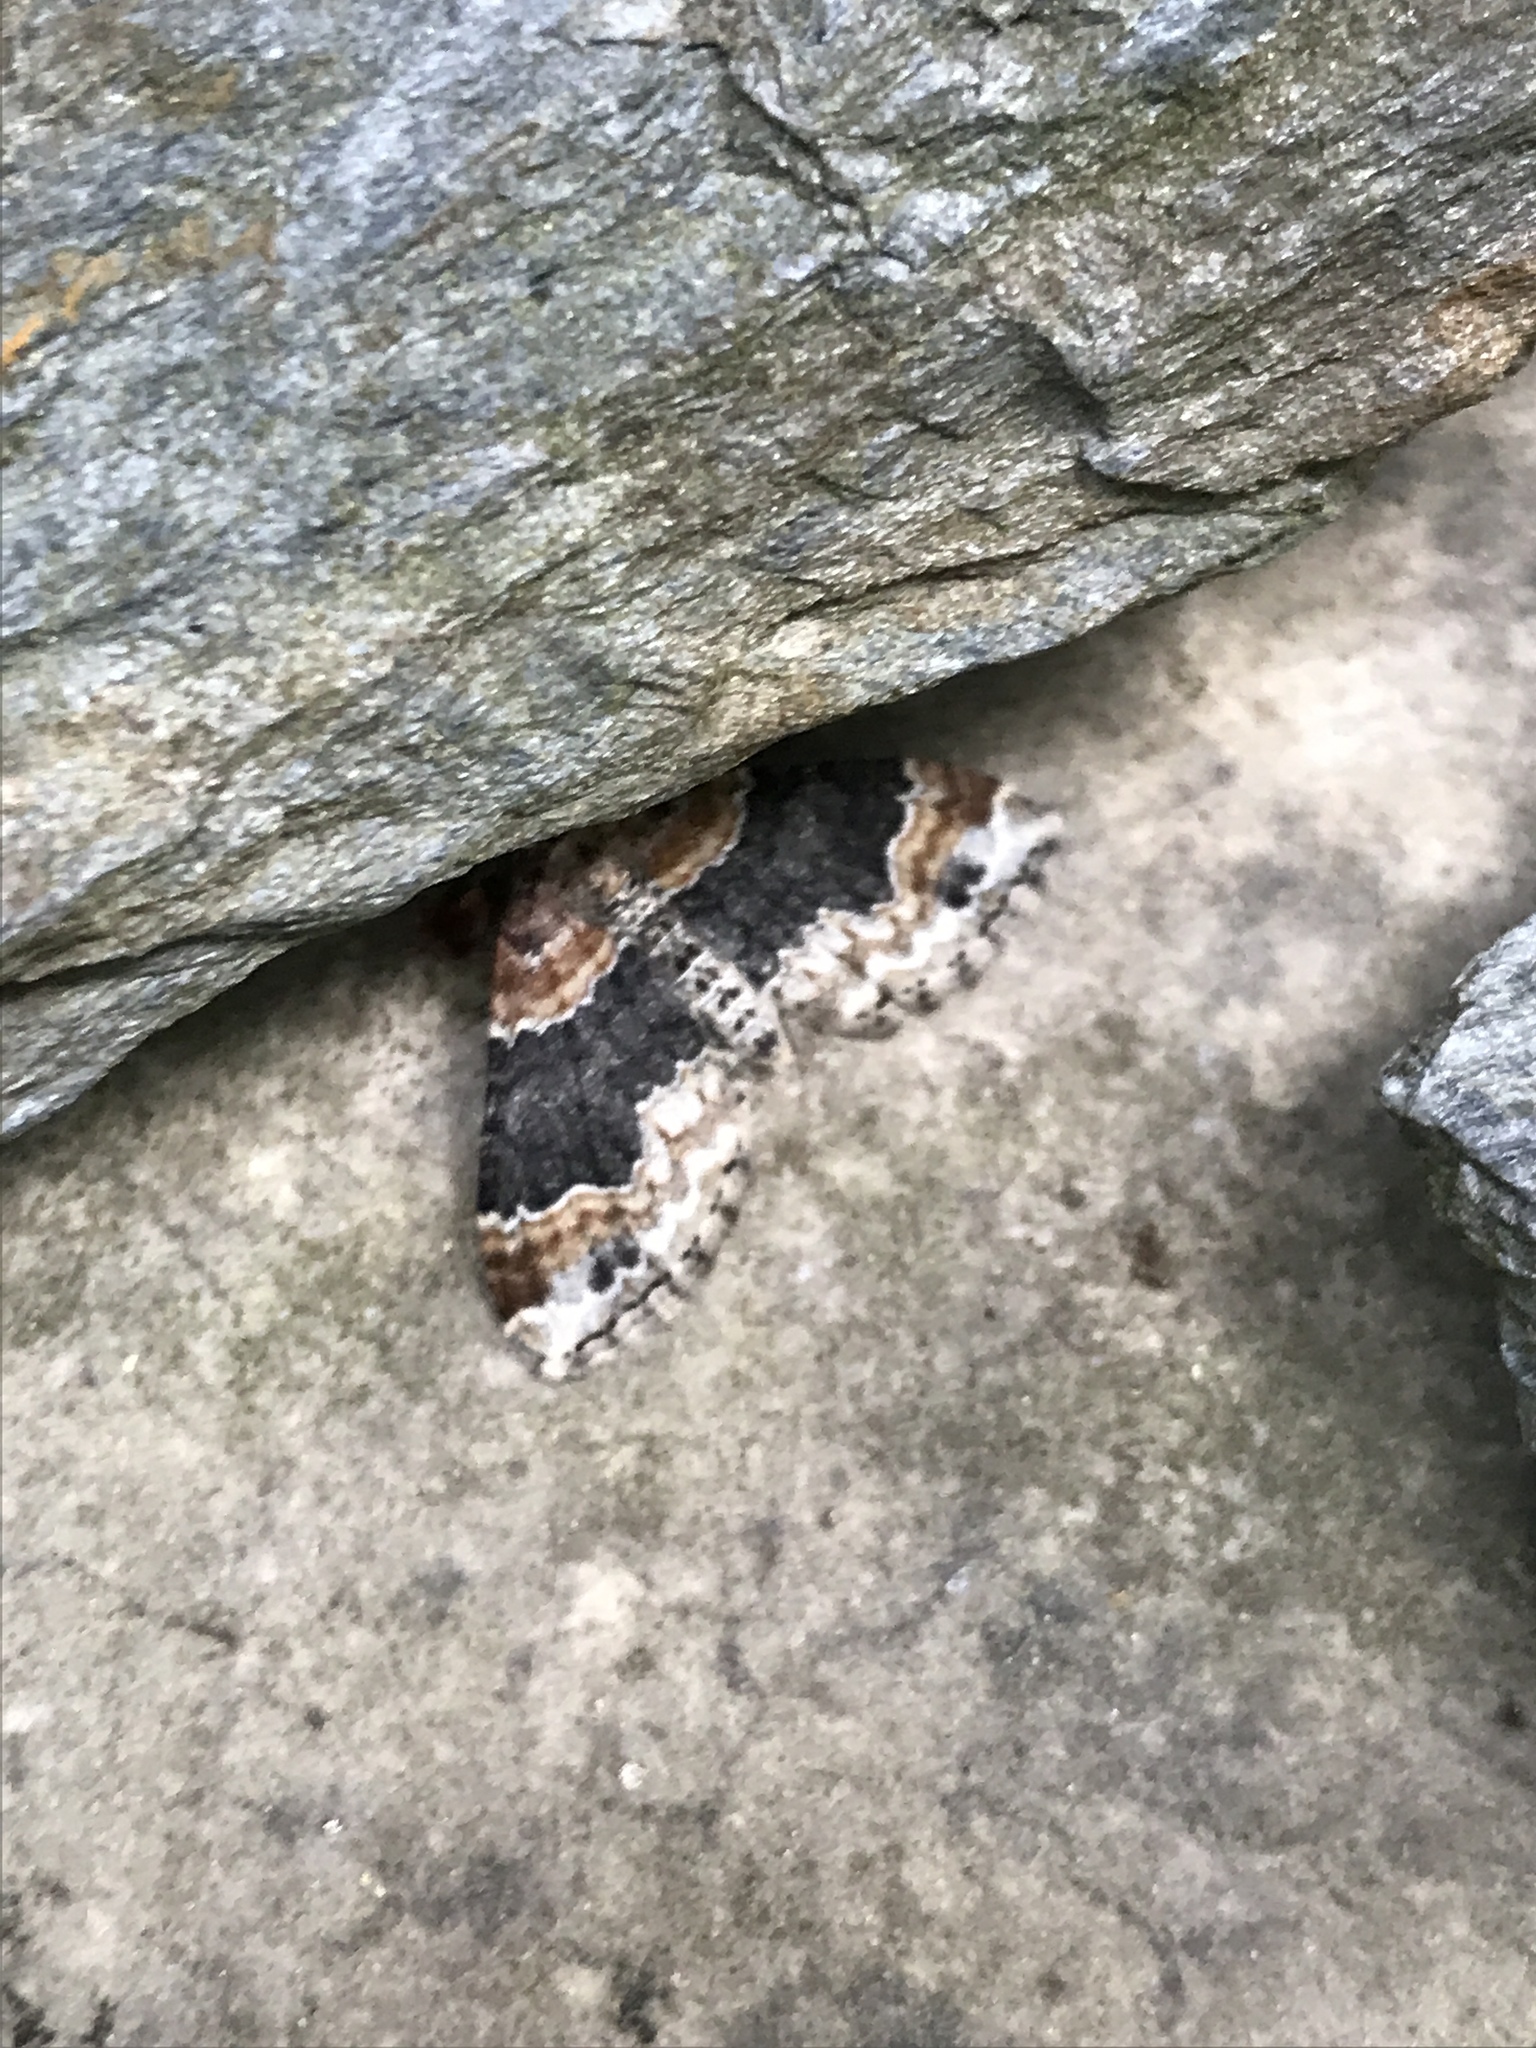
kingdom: Animalia
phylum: Arthropoda
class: Insecta
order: Lepidoptera
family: Geometridae
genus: Xanthorhoe
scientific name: Xanthorhoe ferrugata
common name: Dark-barred twin-spot carpet
